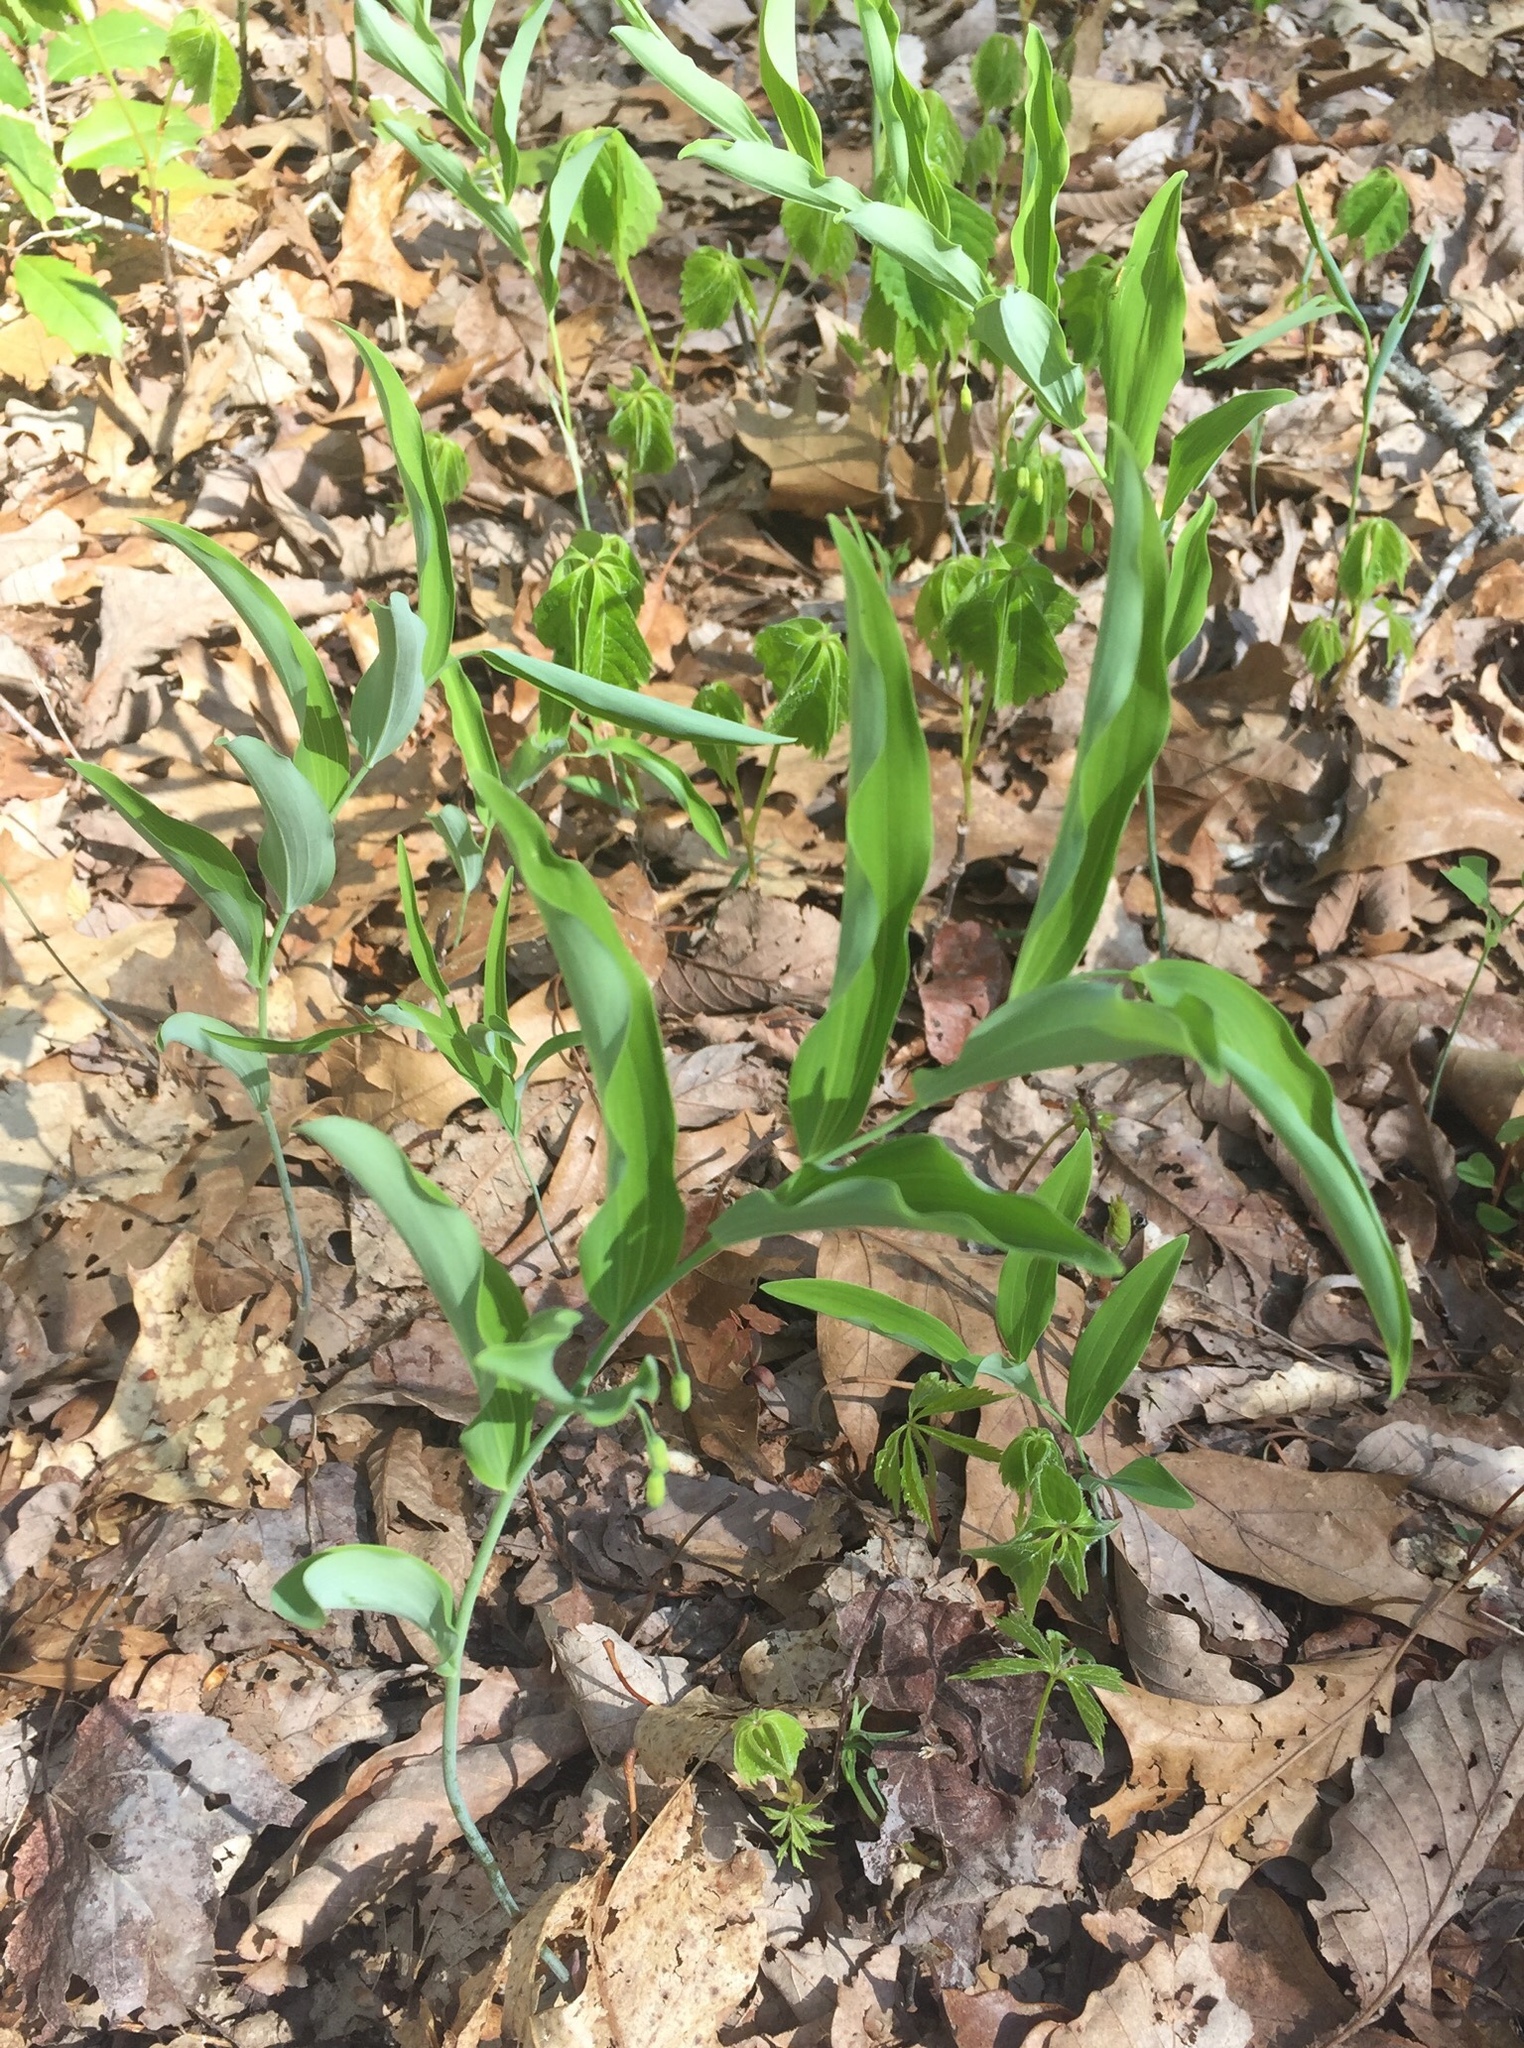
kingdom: Plantae
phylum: Tracheophyta
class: Liliopsida
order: Asparagales
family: Asparagaceae
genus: Polygonatum
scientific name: Polygonatum biflorum
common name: American solomon's-seal
